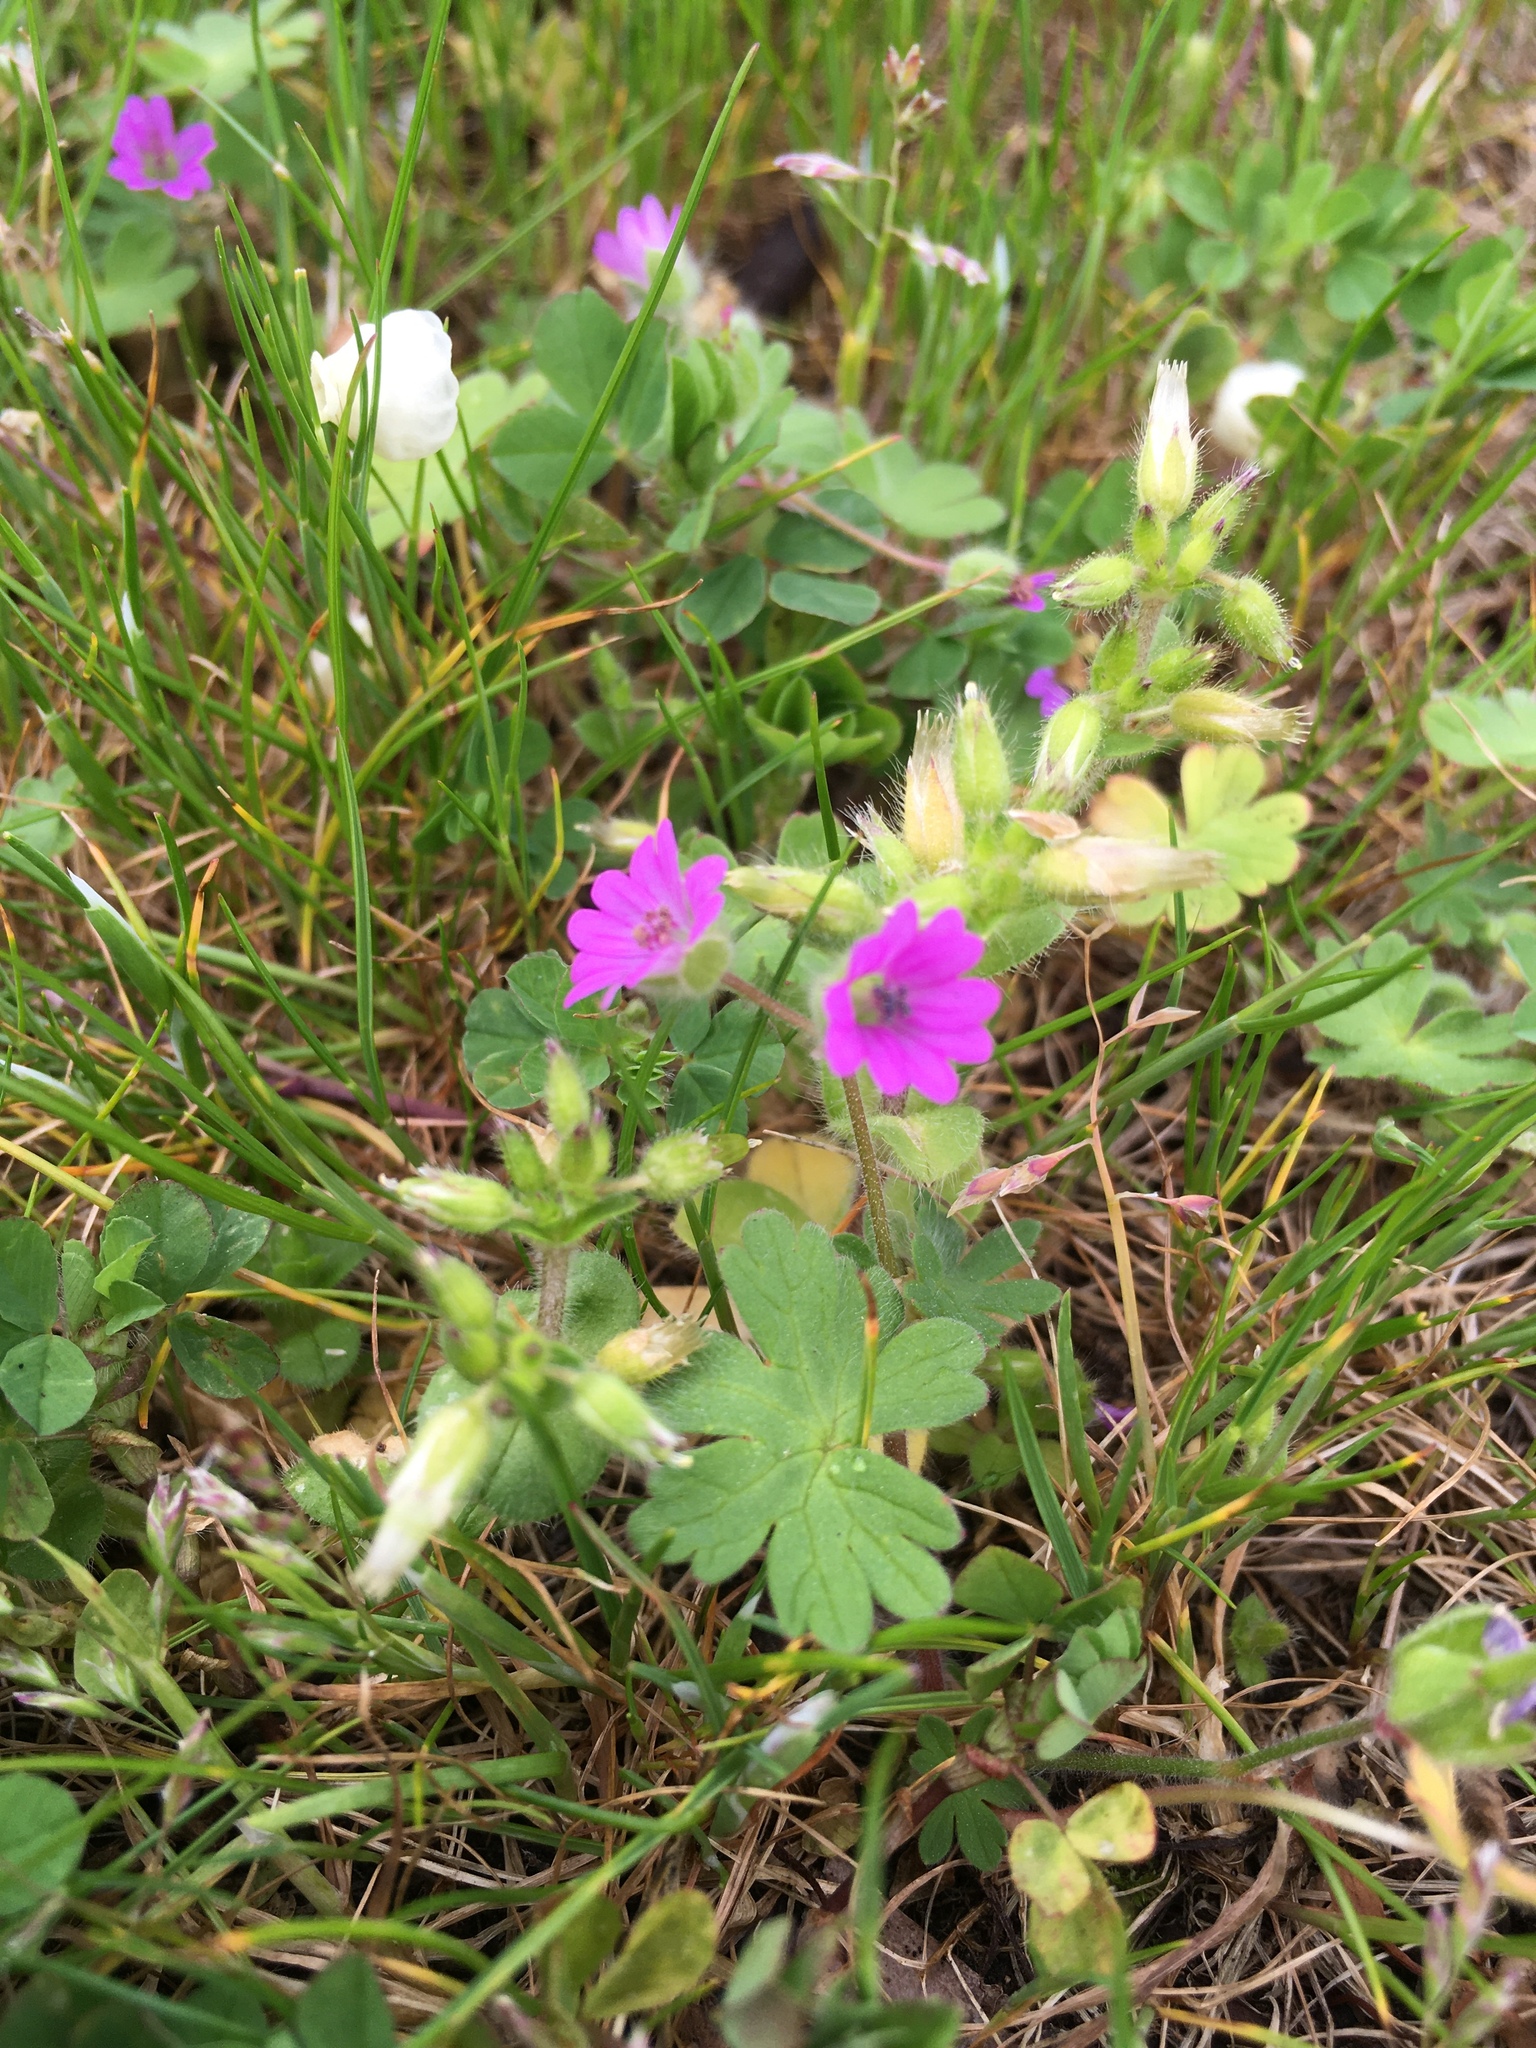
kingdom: Plantae
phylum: Tracheophyta
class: Magnoliopsida
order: Geraniales
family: Geraniaceae
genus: Geranium
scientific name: Geranium molle
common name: Dove's-foot crane's-bill
